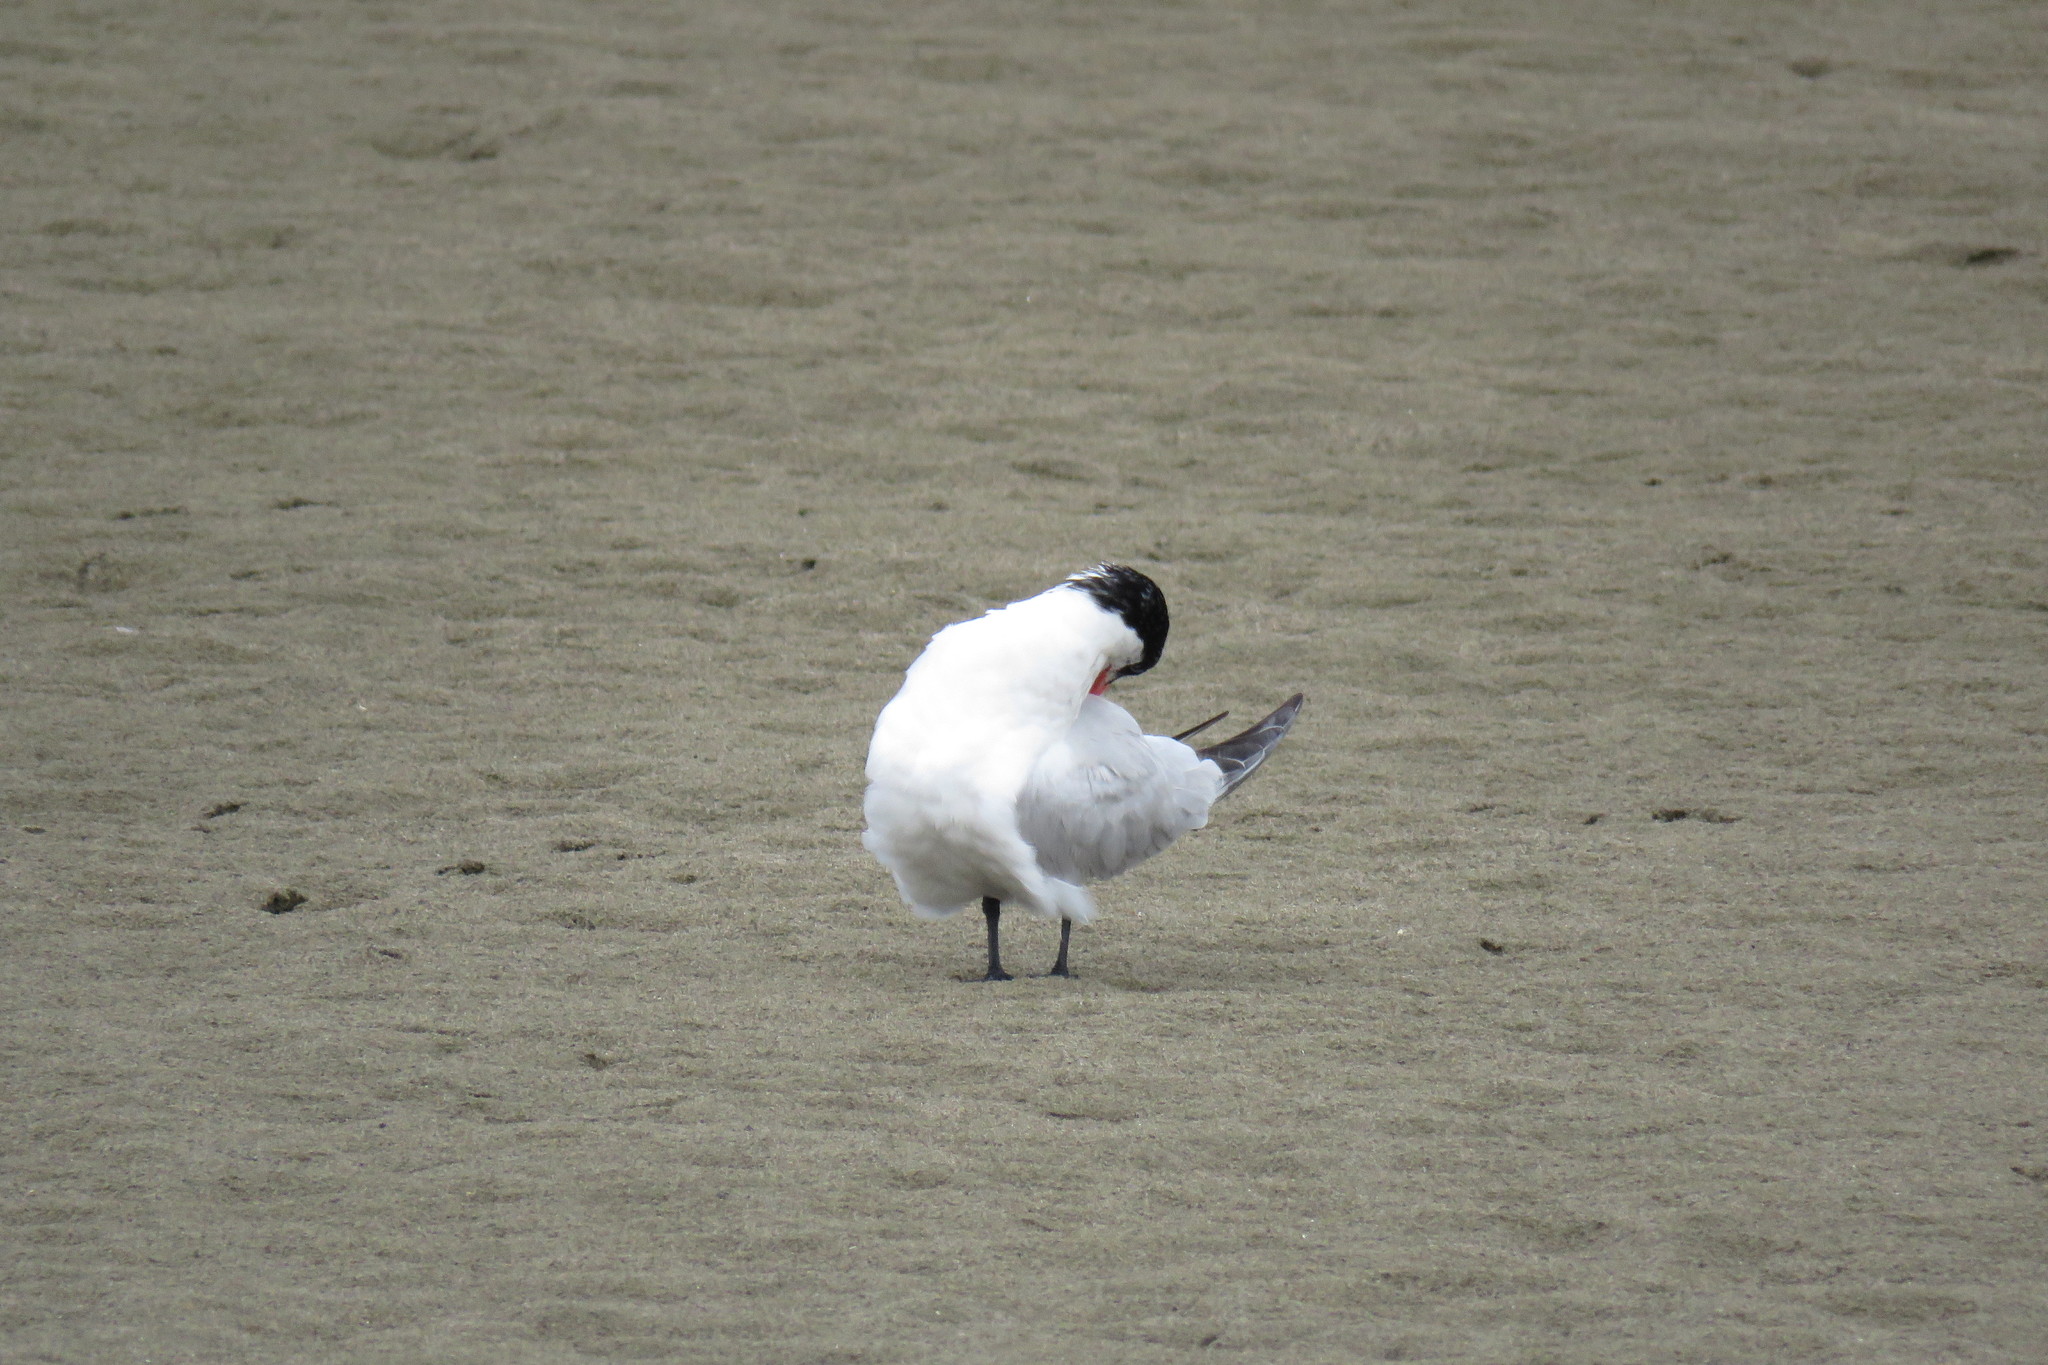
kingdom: Animalia
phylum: Chordata
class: Aves
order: Charadriiformes
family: Laridae
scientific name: Laridae
